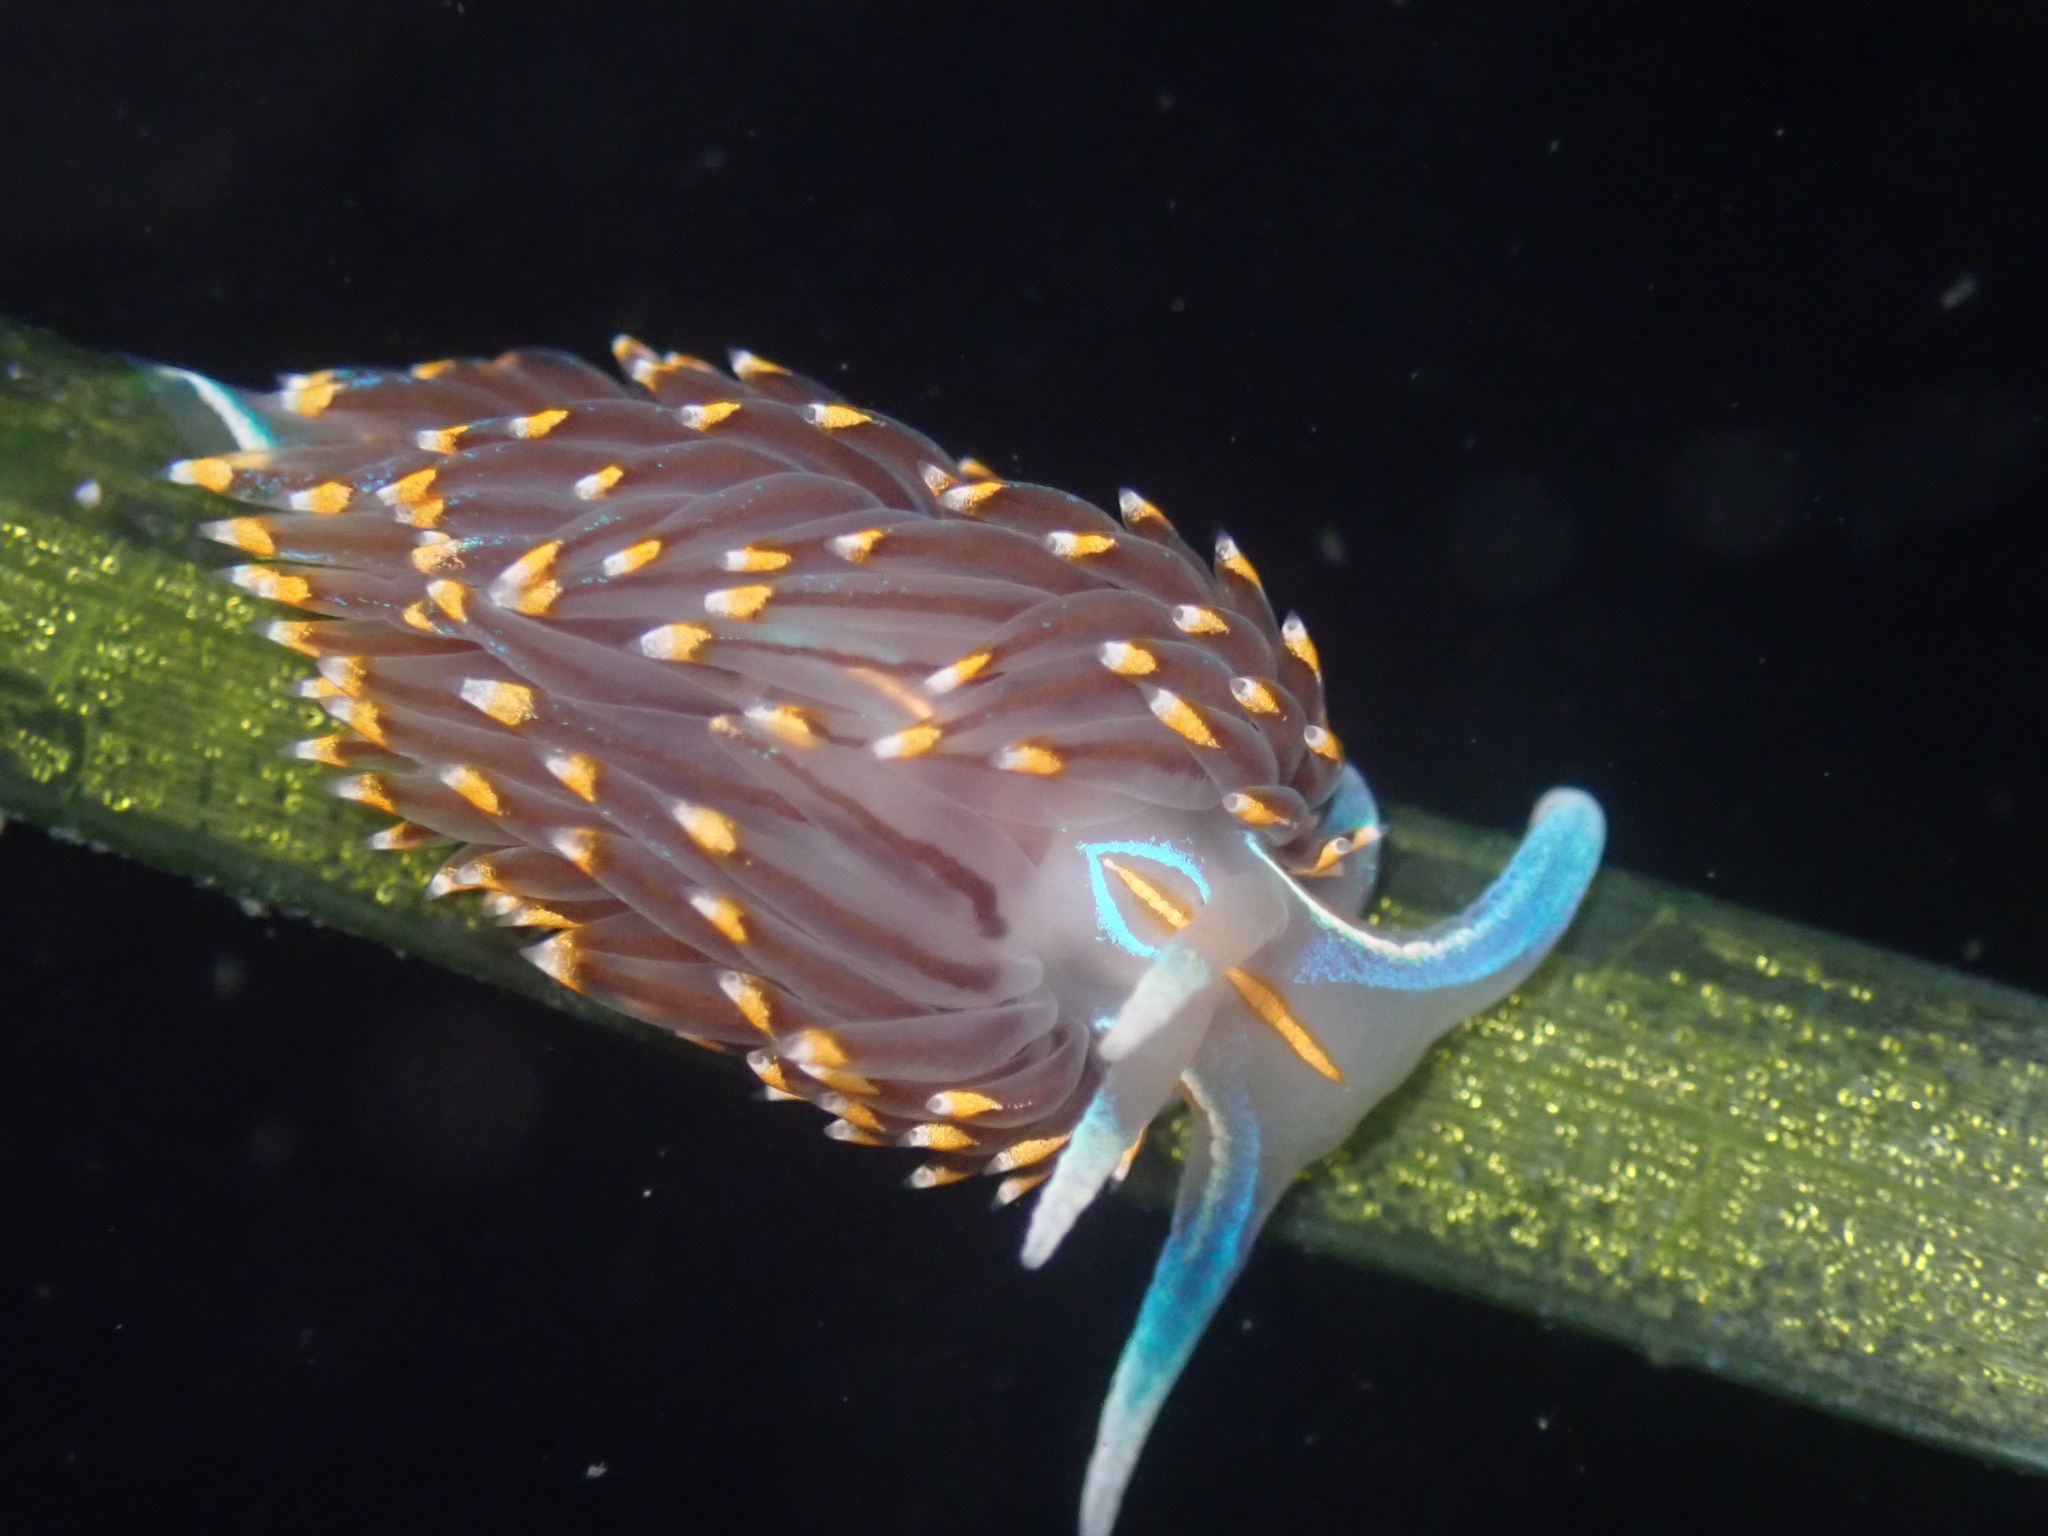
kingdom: Animalia
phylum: Mollusca
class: Gastropoda
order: Nudibranchia
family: Myrrhinidae
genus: Hermissenda
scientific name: Hermissenda opalescens
